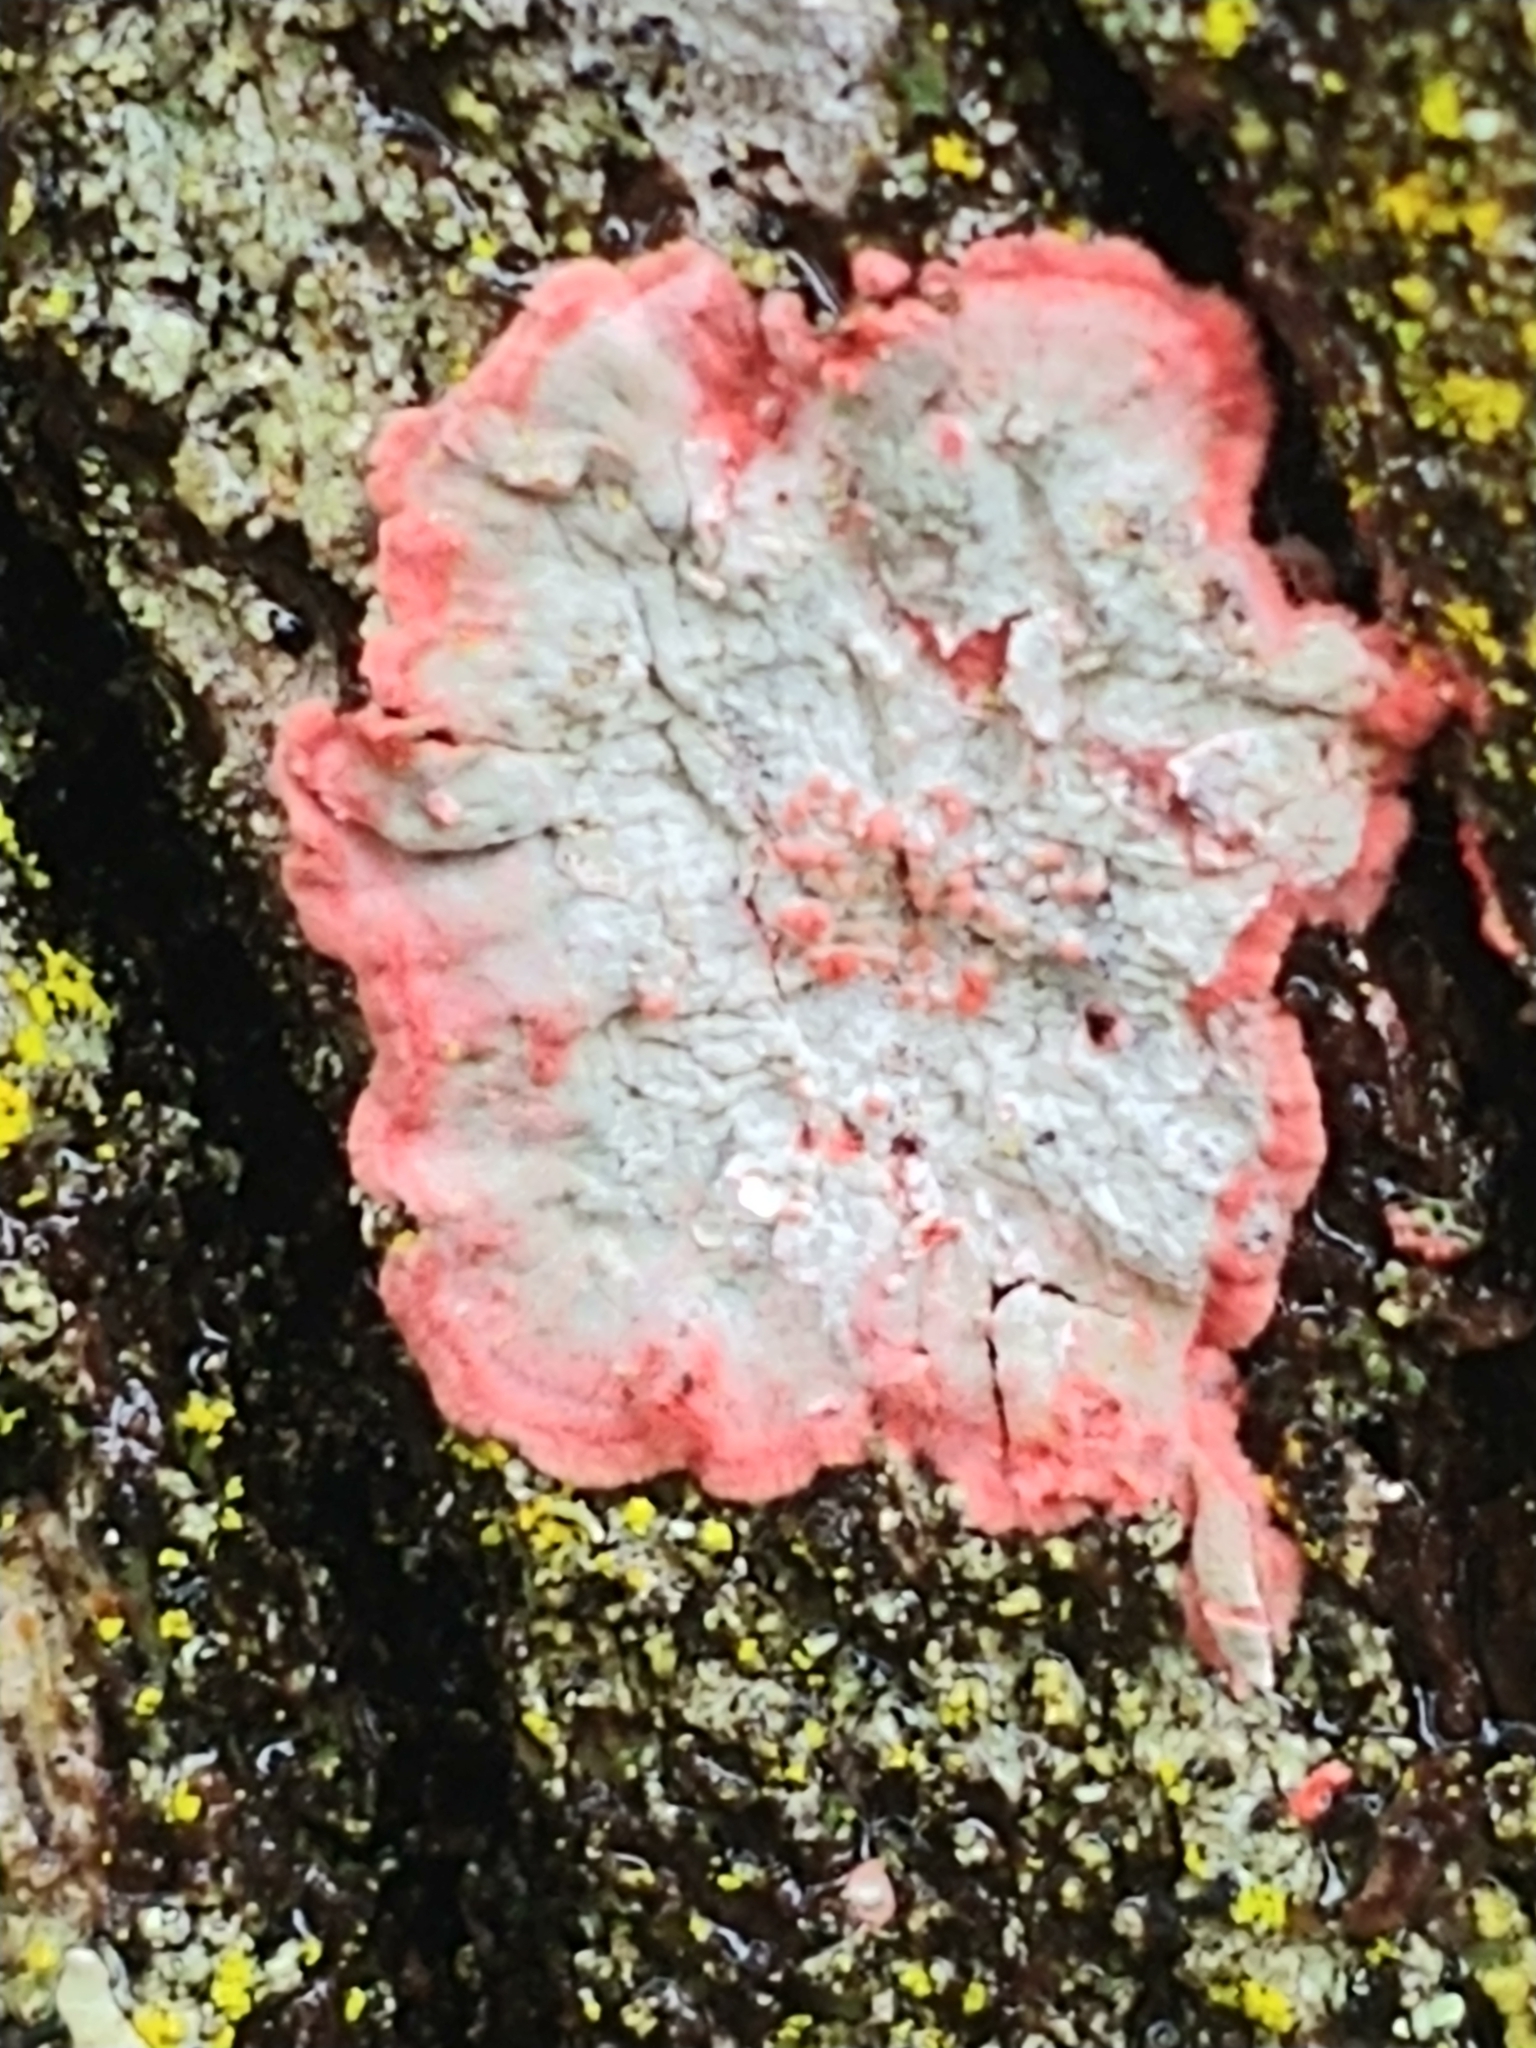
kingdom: Fungi
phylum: Ascomycota
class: Arthoniomycetes
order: Arthoniales
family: Arthoniaceae
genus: Herpothallon
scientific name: Herpothallon rubrocinctum
